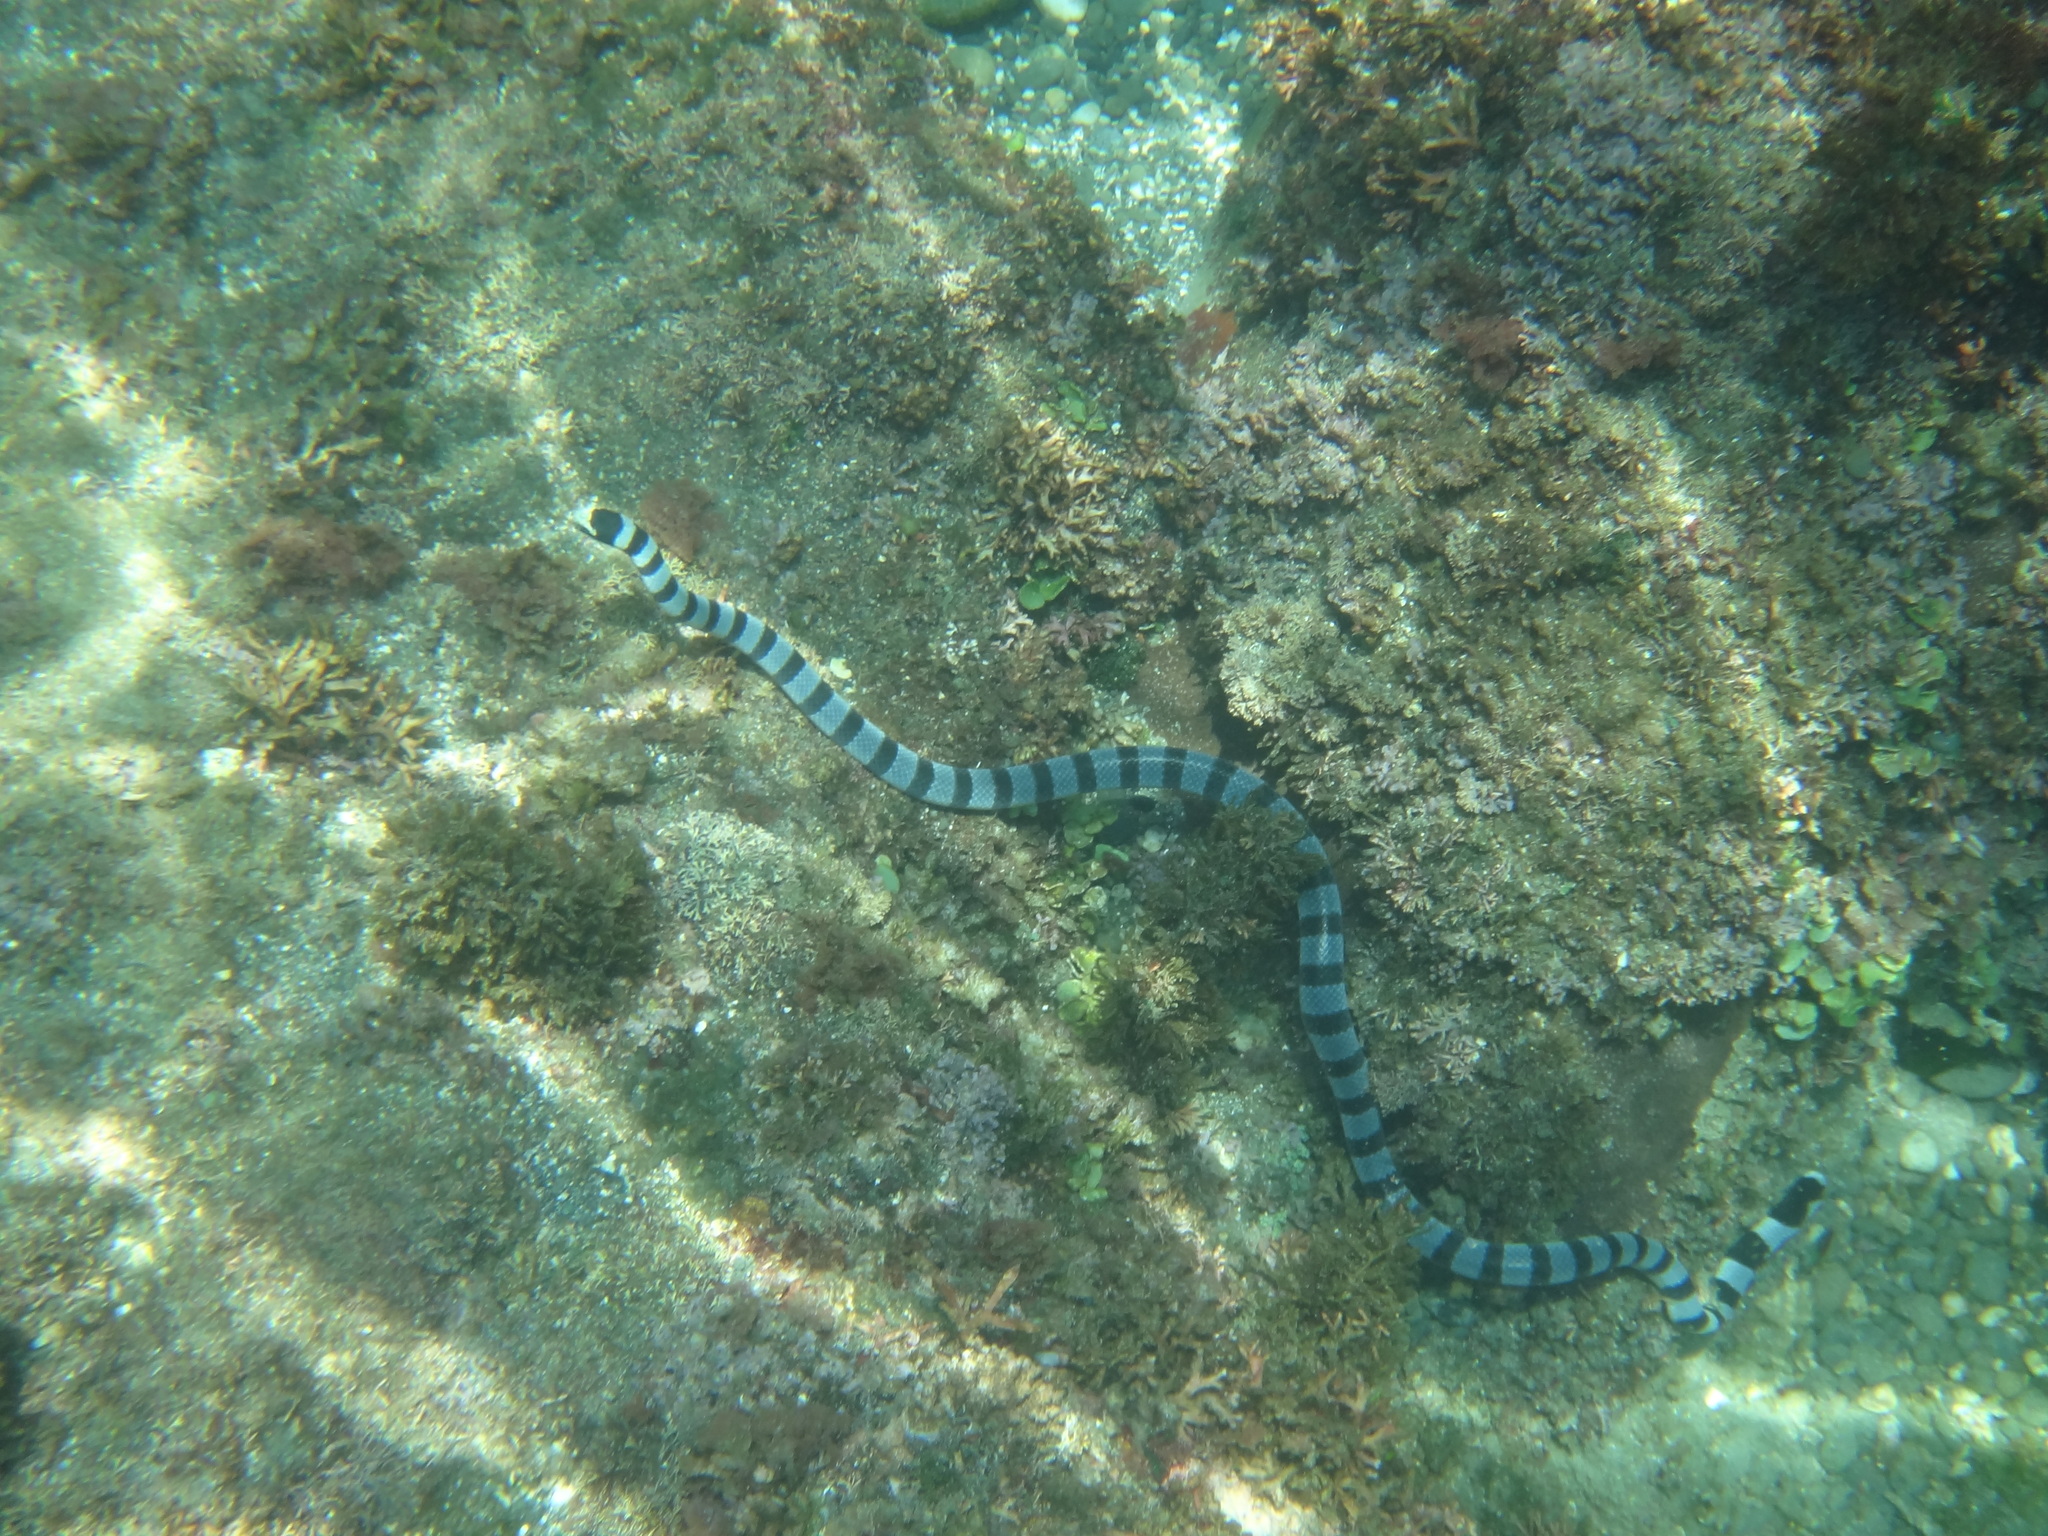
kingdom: Animalia
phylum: Chordata
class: Squamata
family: Elapidae
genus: Laticauda
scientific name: Laticauda colubrina
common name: Yellow-lipped sea krait
